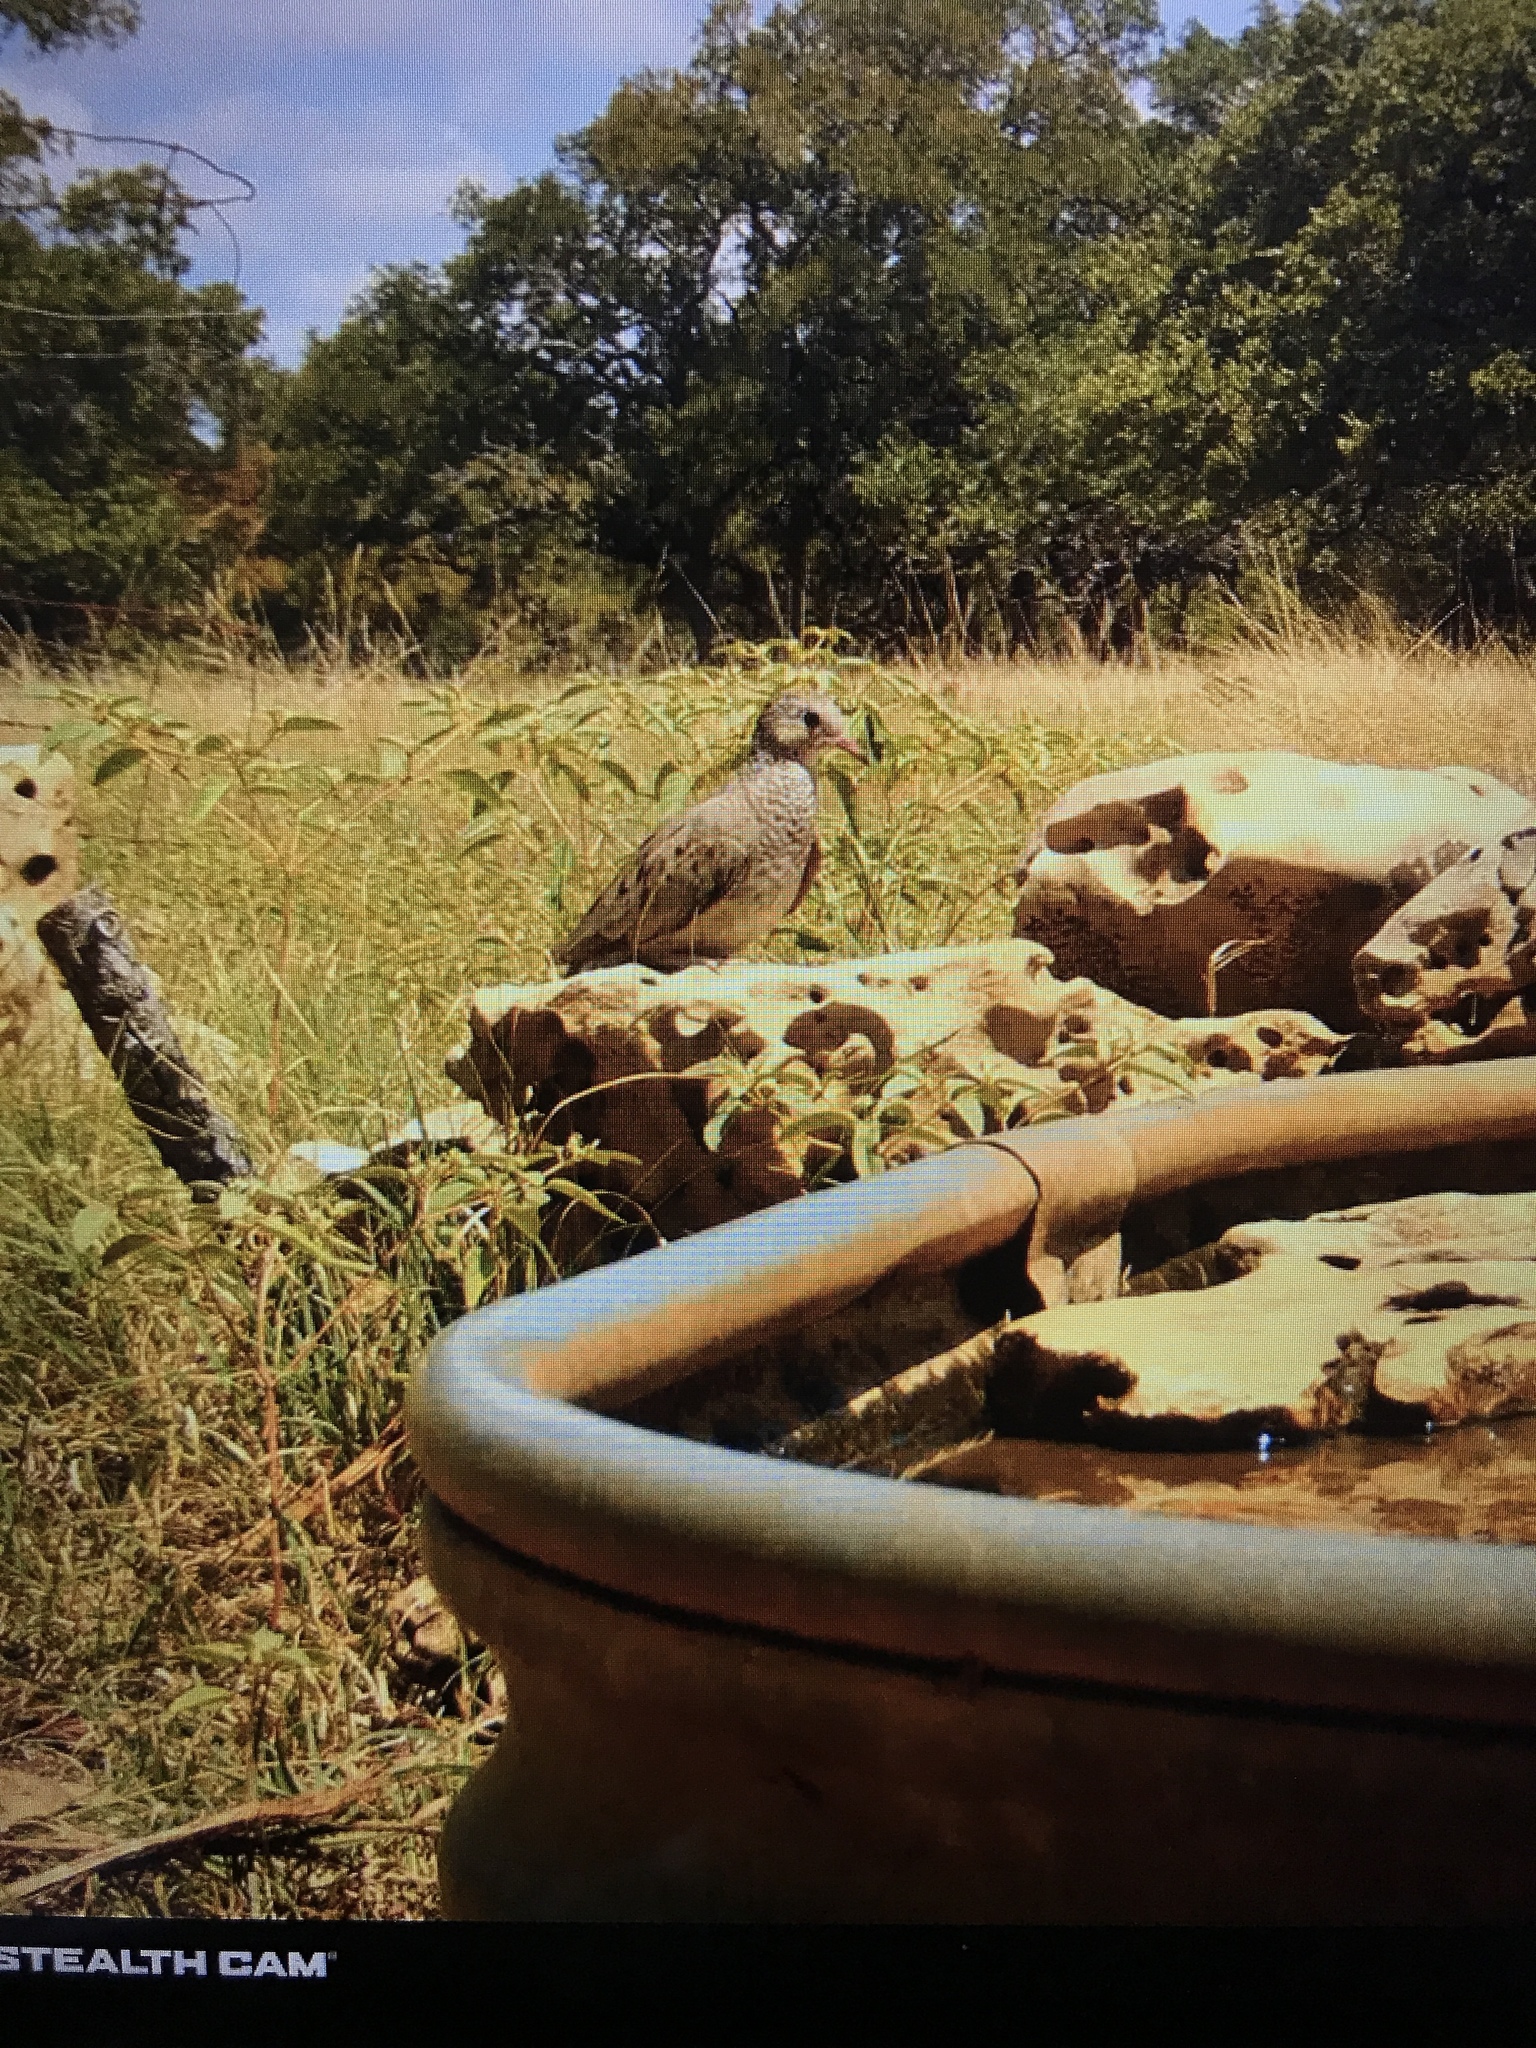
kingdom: Animalia
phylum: Chordata
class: Aves
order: Columbiformes
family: Columbidae
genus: Columbina
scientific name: Columbina passerina
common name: Common ground-dove
